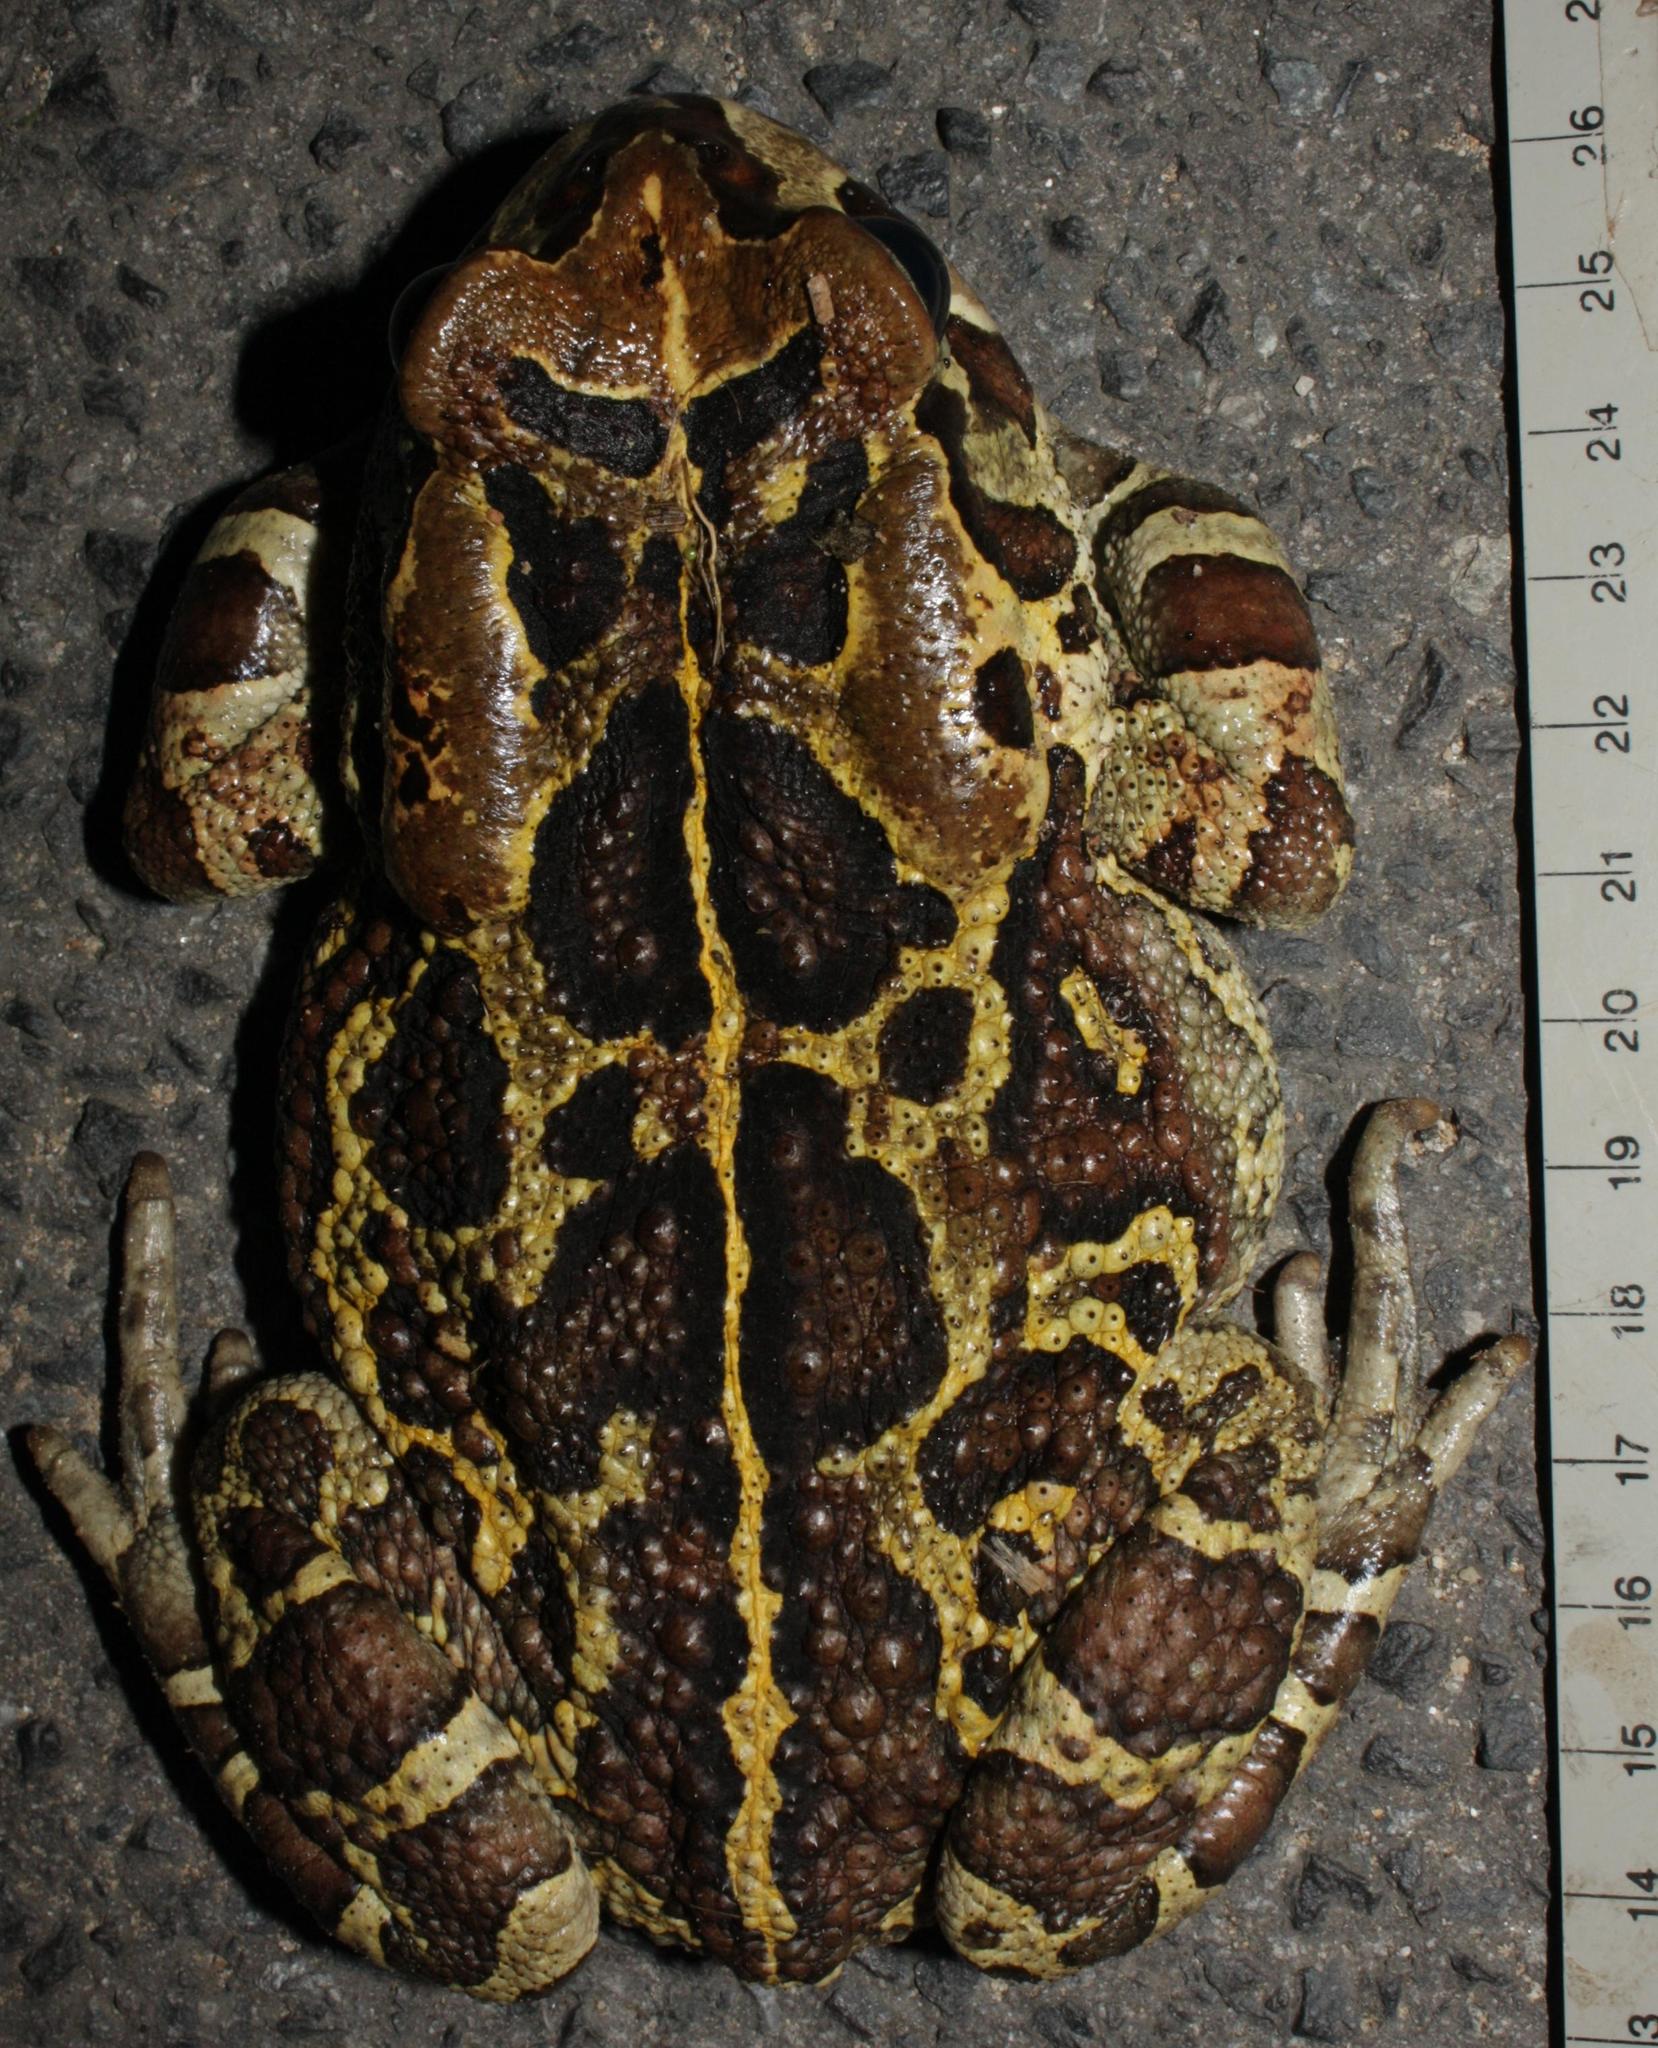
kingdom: Animalia
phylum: Chordata
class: Amphibia
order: Anura
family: Bufonidae
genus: Sclerophrys
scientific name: Sclerophrys pantherina
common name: Panther toad
